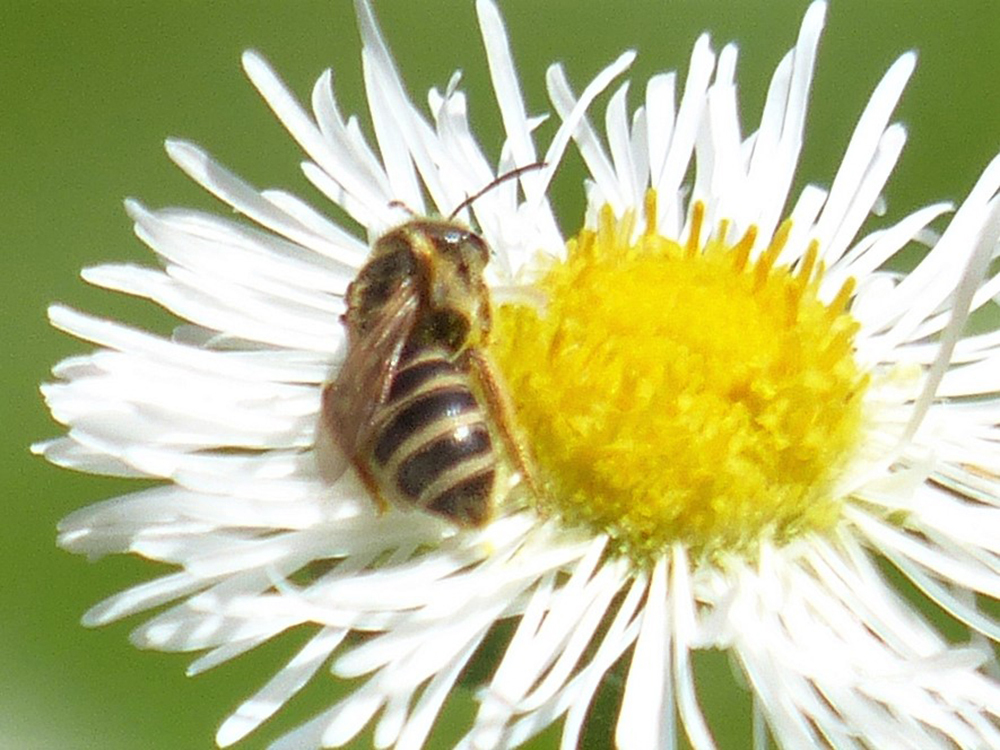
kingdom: Animalia
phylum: Arthropoda
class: Insecta
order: Hymenoptera
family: Halictidae
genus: Halictus
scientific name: Halictus ligatus
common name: Ligated furrow bee
